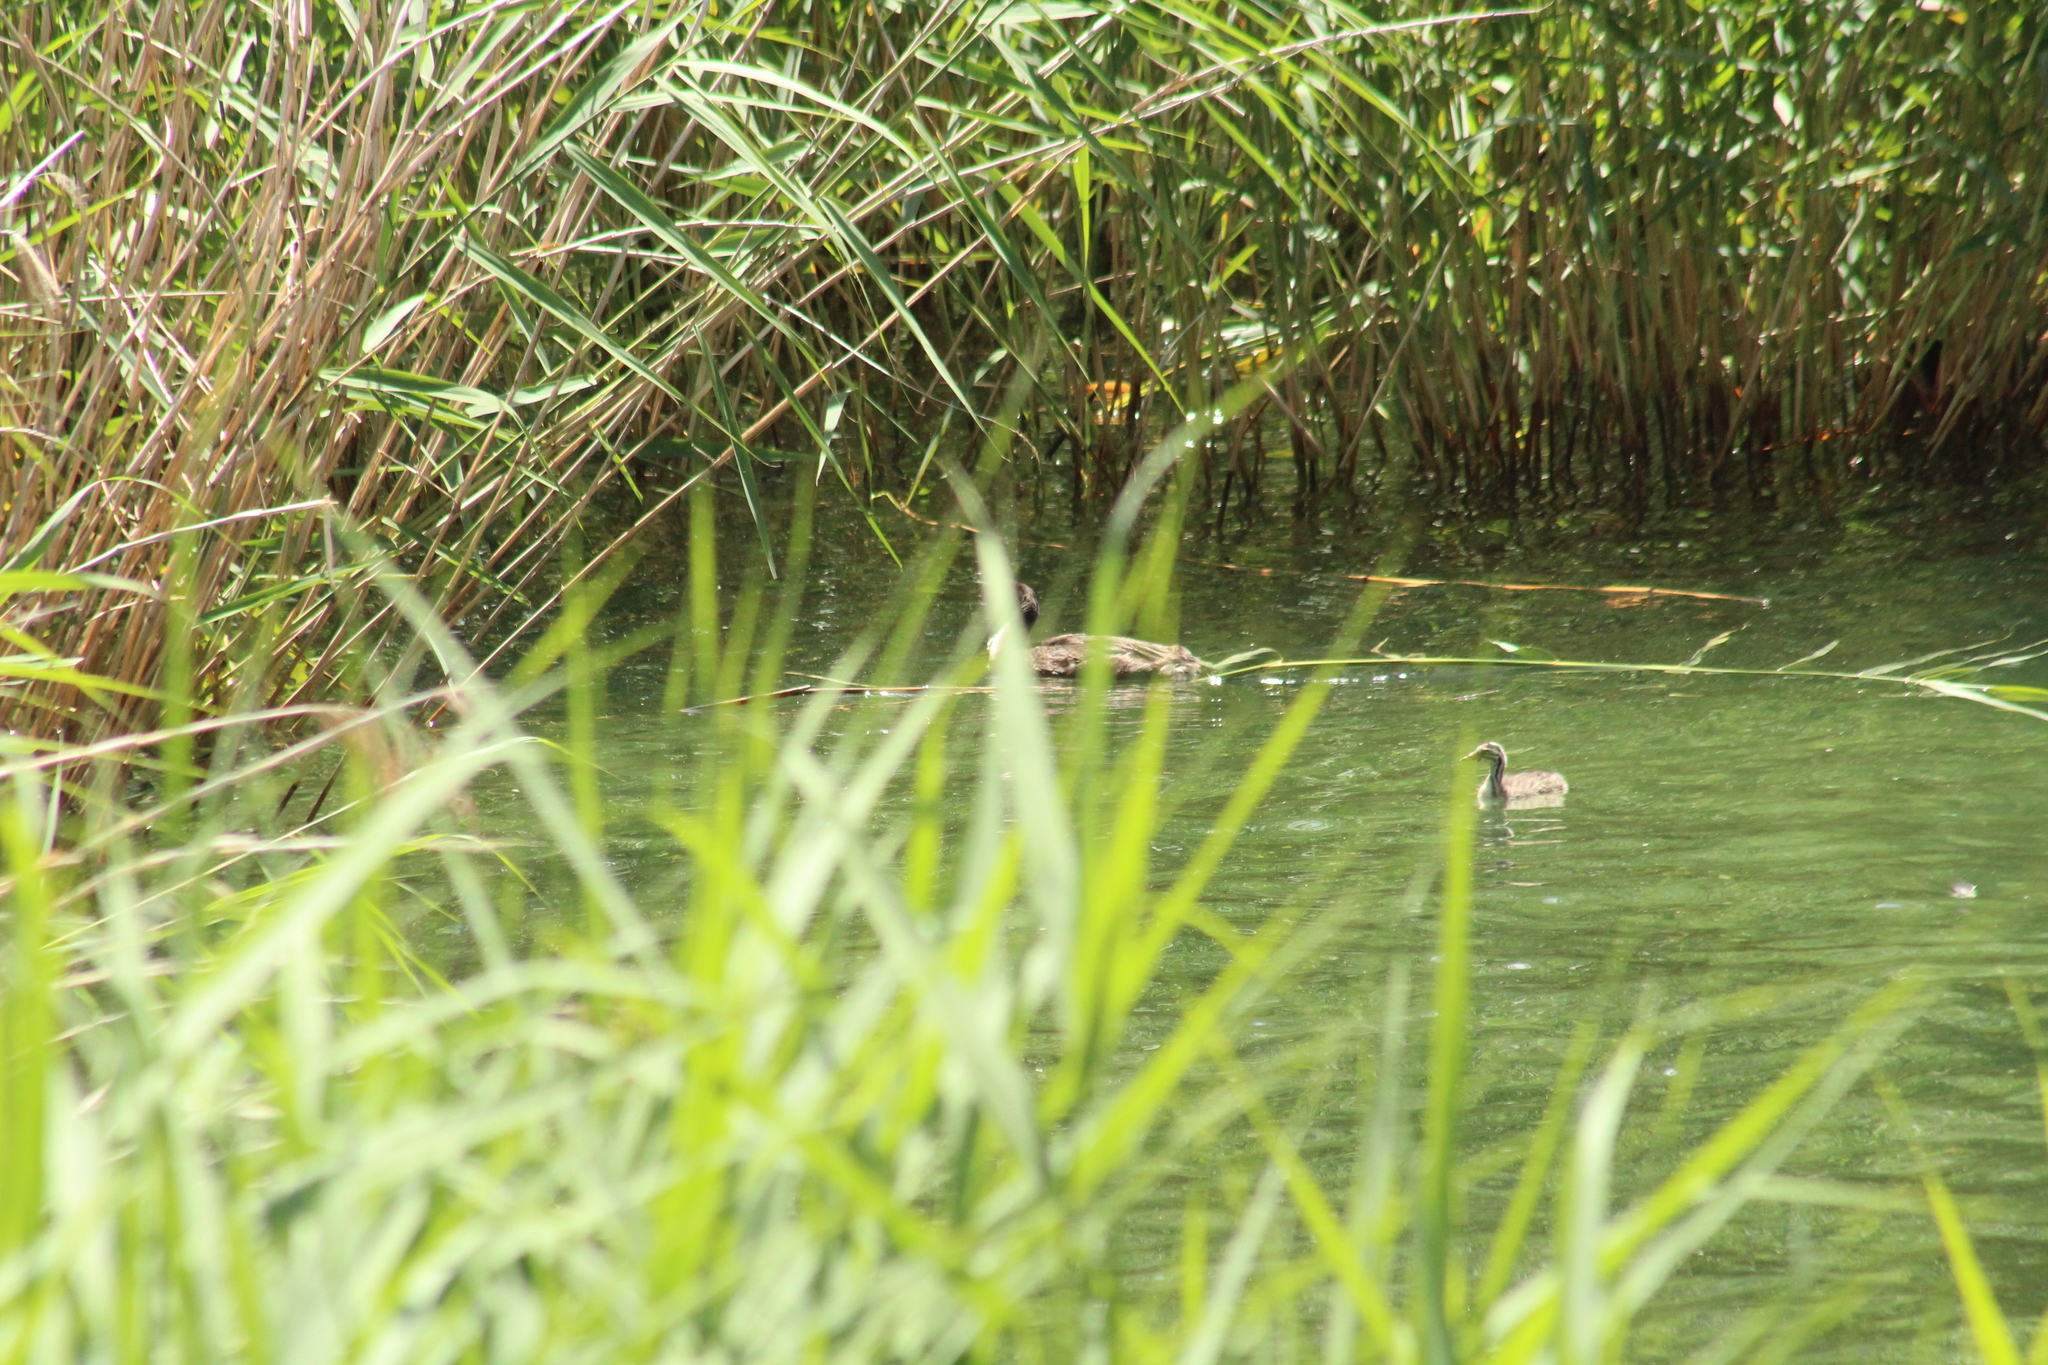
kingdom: Animalia
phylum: Chordata
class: Aves
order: Podicipediformes
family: Podicipedidae
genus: Podiceps
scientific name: Podiceps cristatus
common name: Great crested grebe
